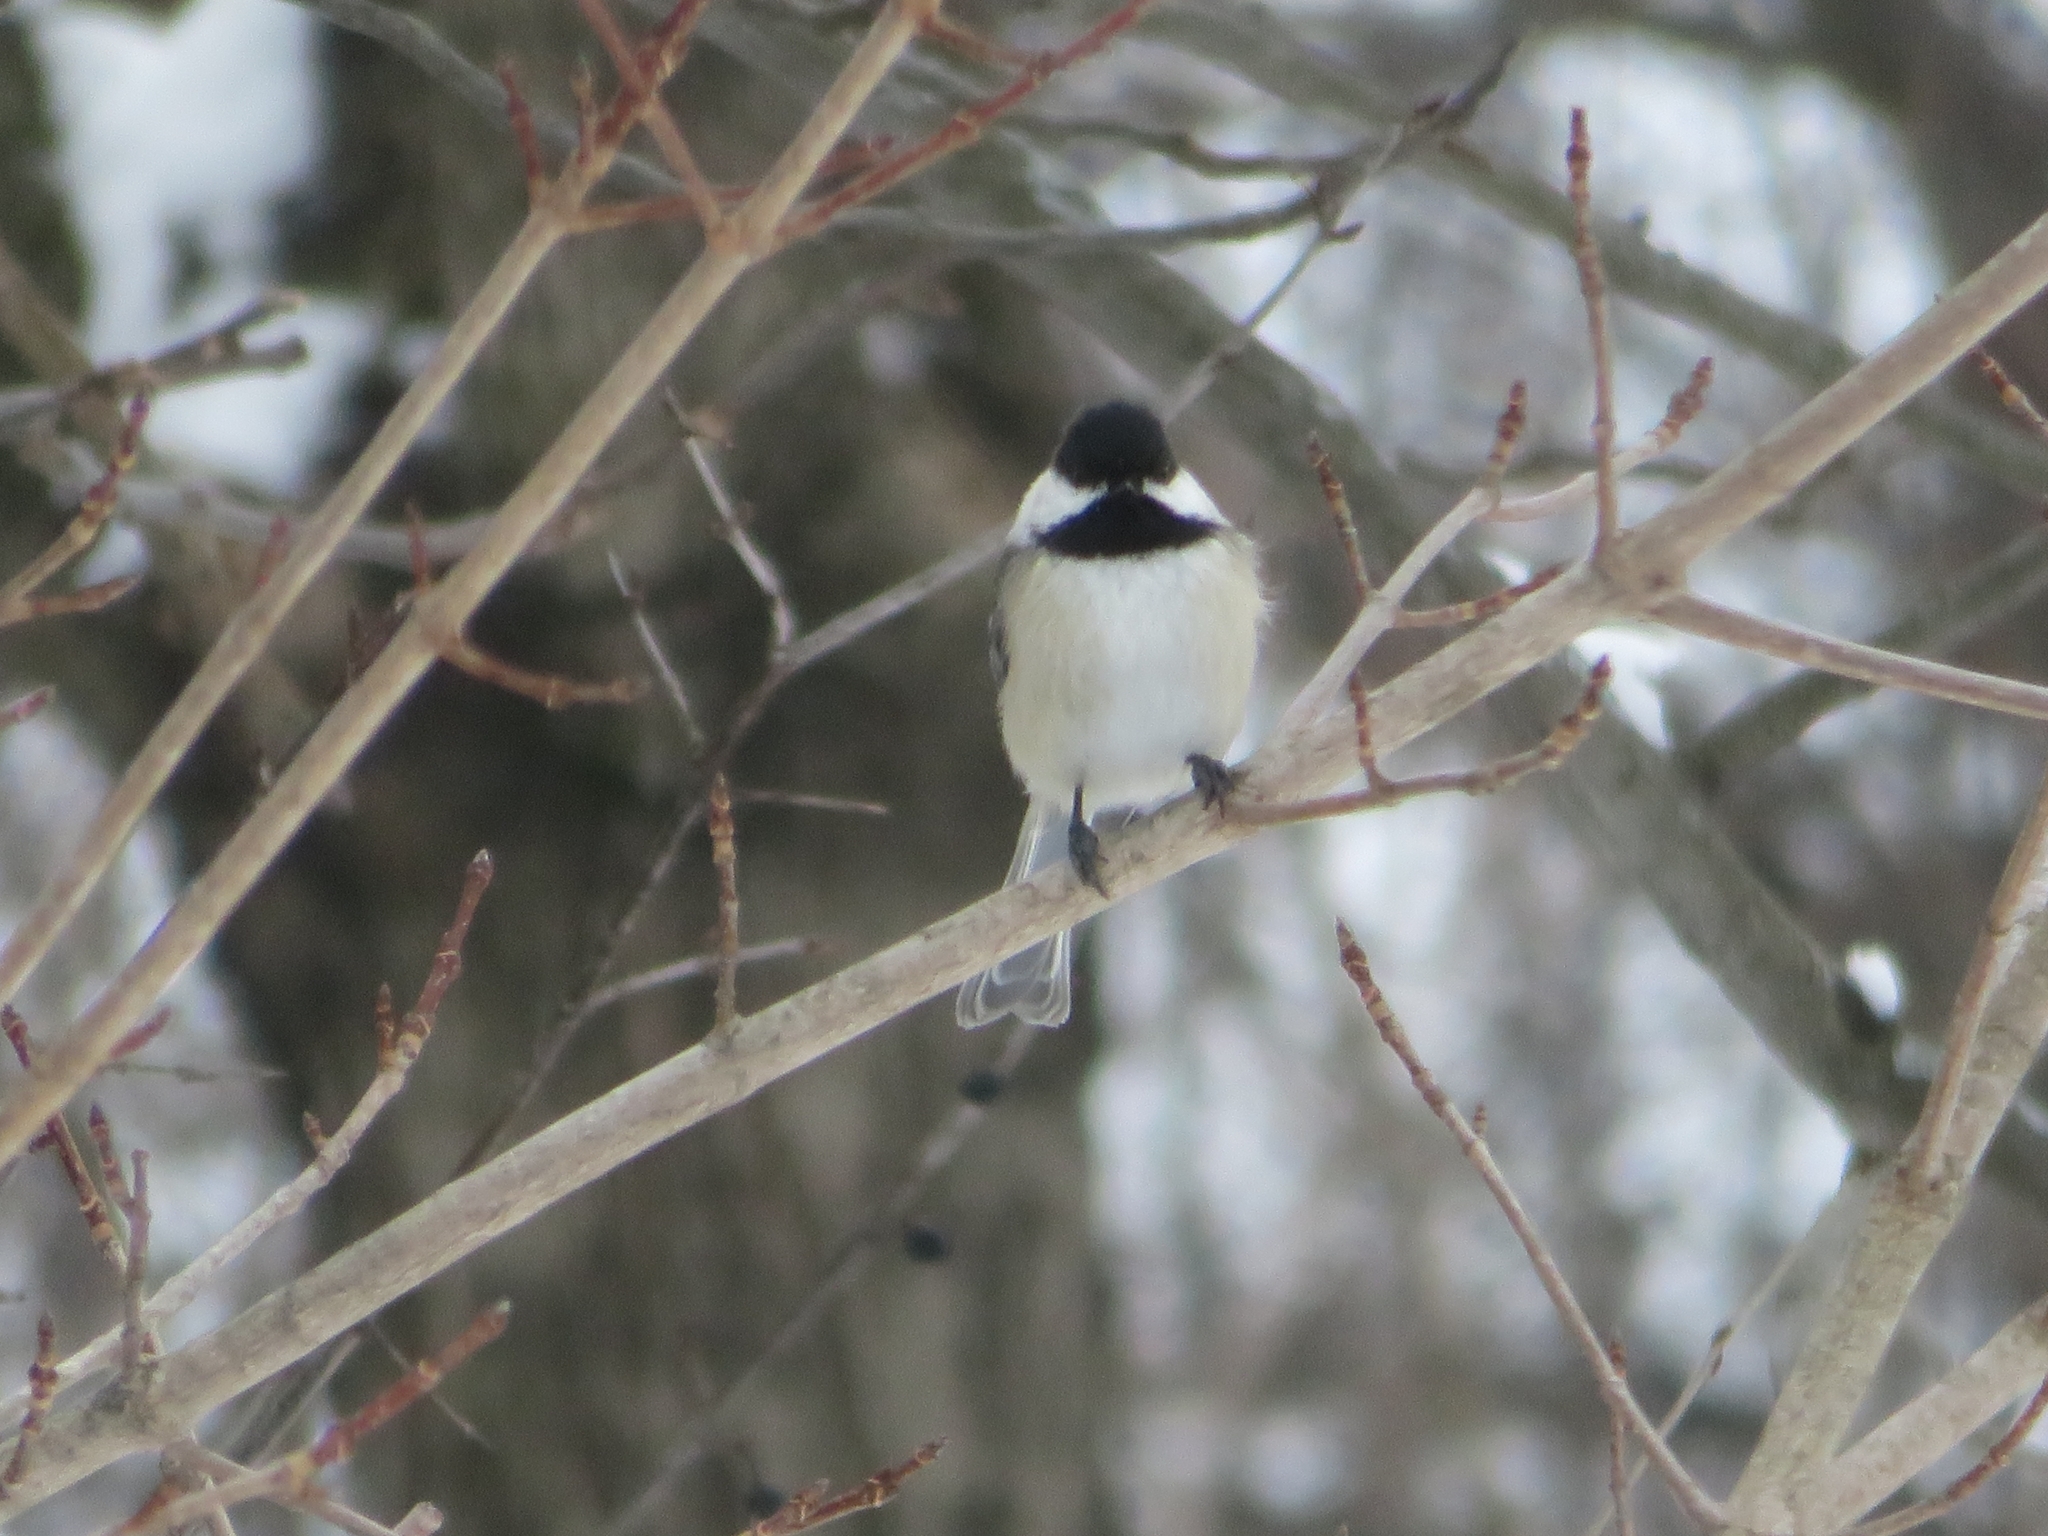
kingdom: Animalia
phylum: Chordata
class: Aves
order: Passeriformes
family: Paridae
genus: Poecile
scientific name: Poecile atricapillus
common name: Black-capped chickadee
